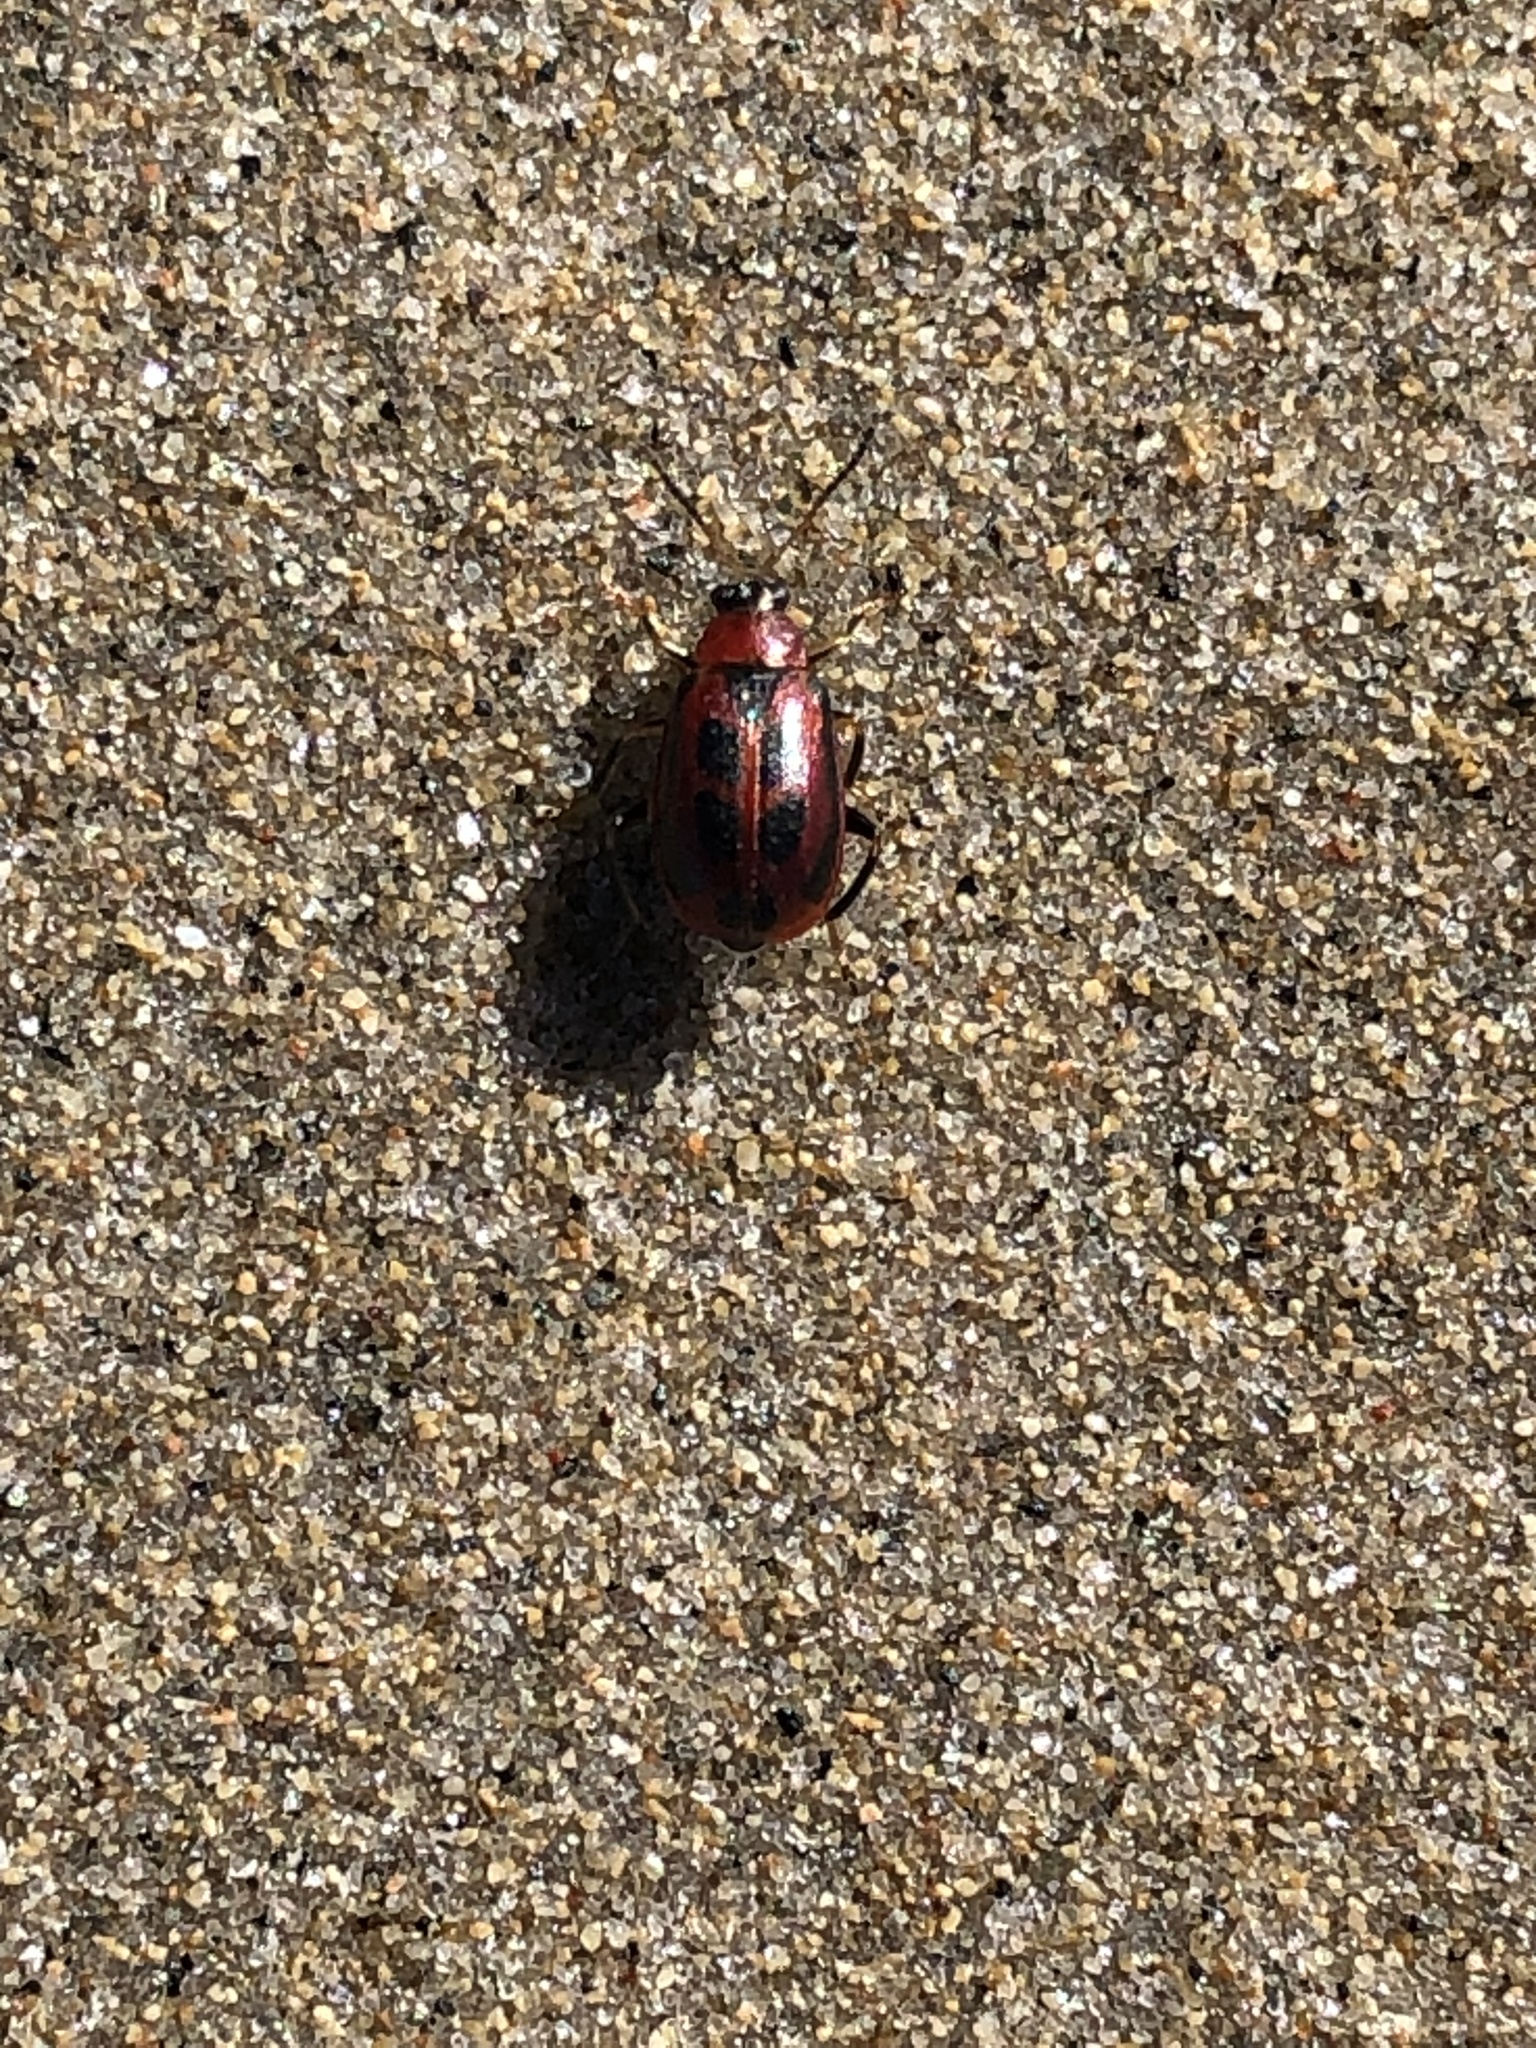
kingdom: Animalia
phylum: Arthropoda
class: Insecta
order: Coleoptera
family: Chrysomelidae
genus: Cerotoma
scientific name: Cerotoma trifurcata
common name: Bean leaf beetle
